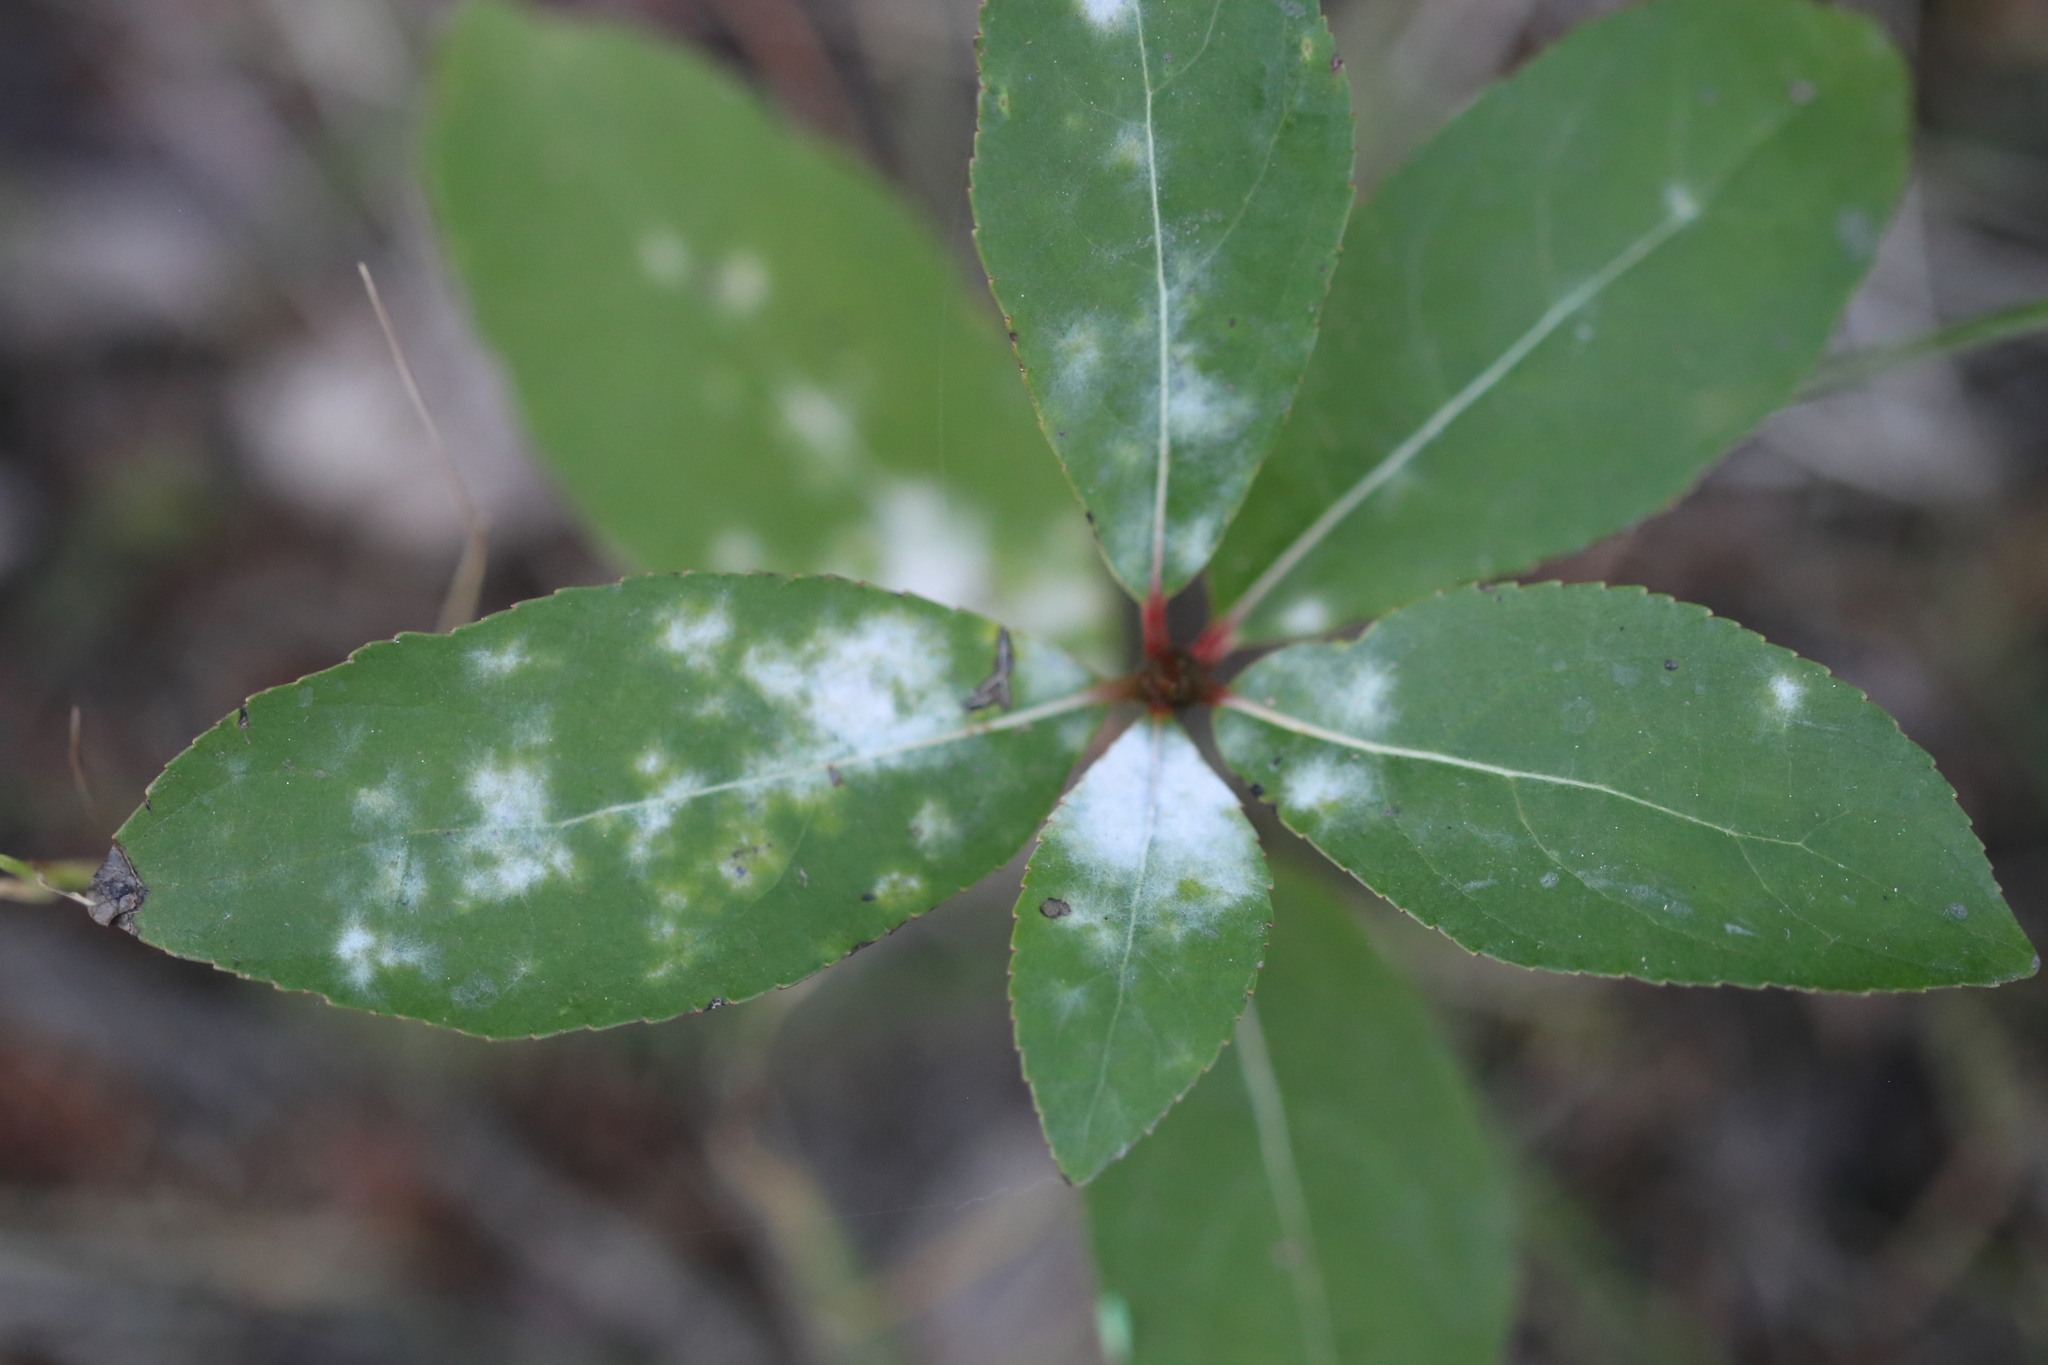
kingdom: Fungi
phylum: Ascomycota
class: Leotiomycetes
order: Helotiales
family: Erysiphaceae
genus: Erysiphe
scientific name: Erysiphe adunca
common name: Willow mildew
